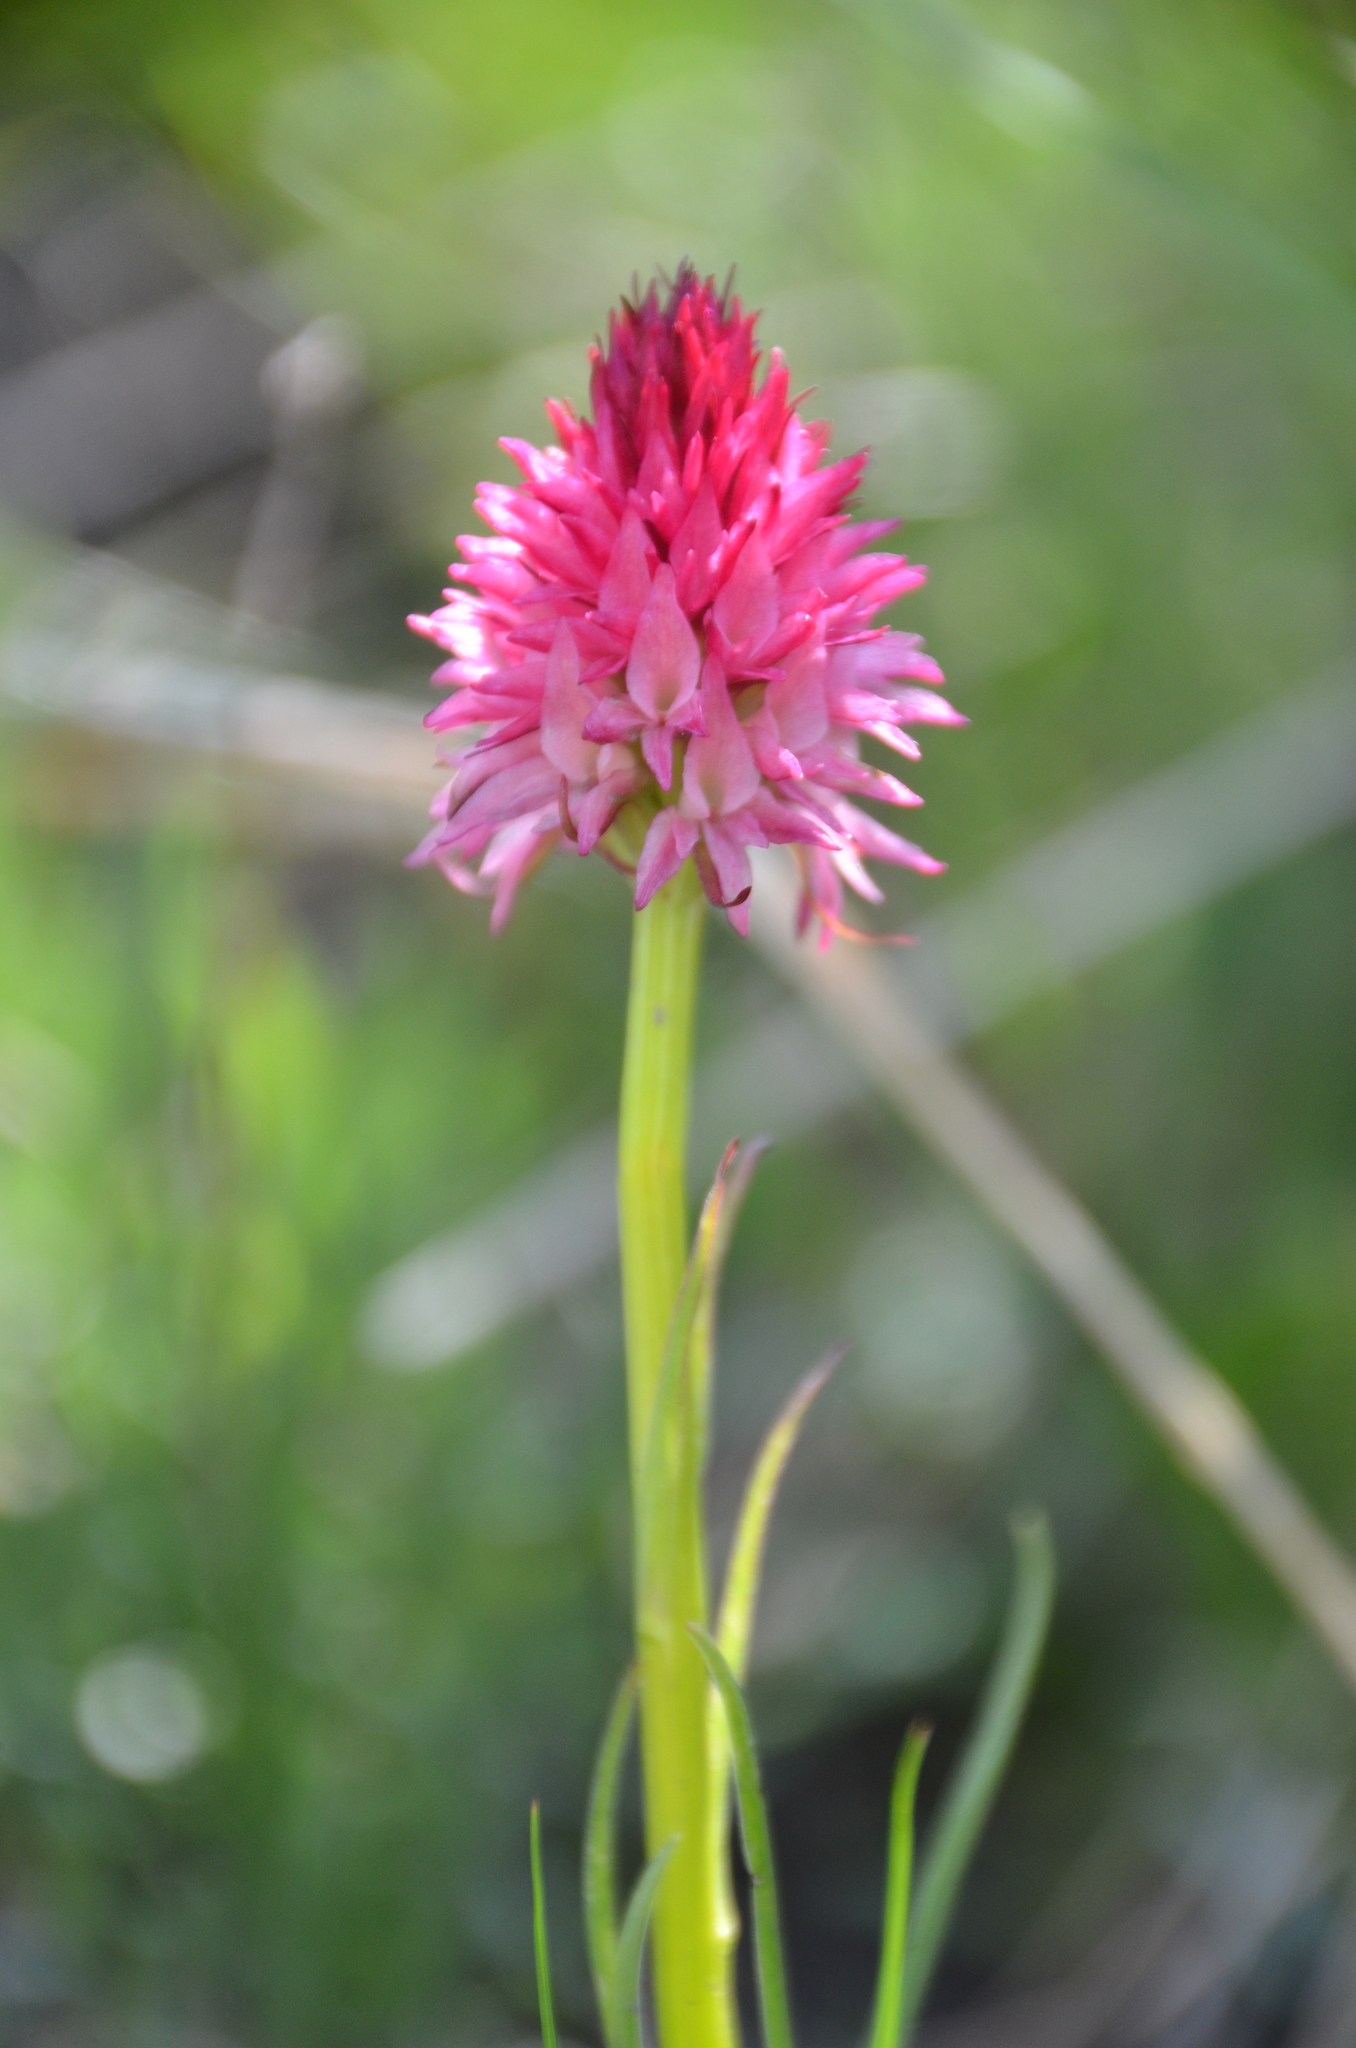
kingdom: Plantae
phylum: Tracheophyta
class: Liliopsida
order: Asparagales
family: Orchidaceae
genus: Gymnadenia
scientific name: Gymnadenia corneliana
